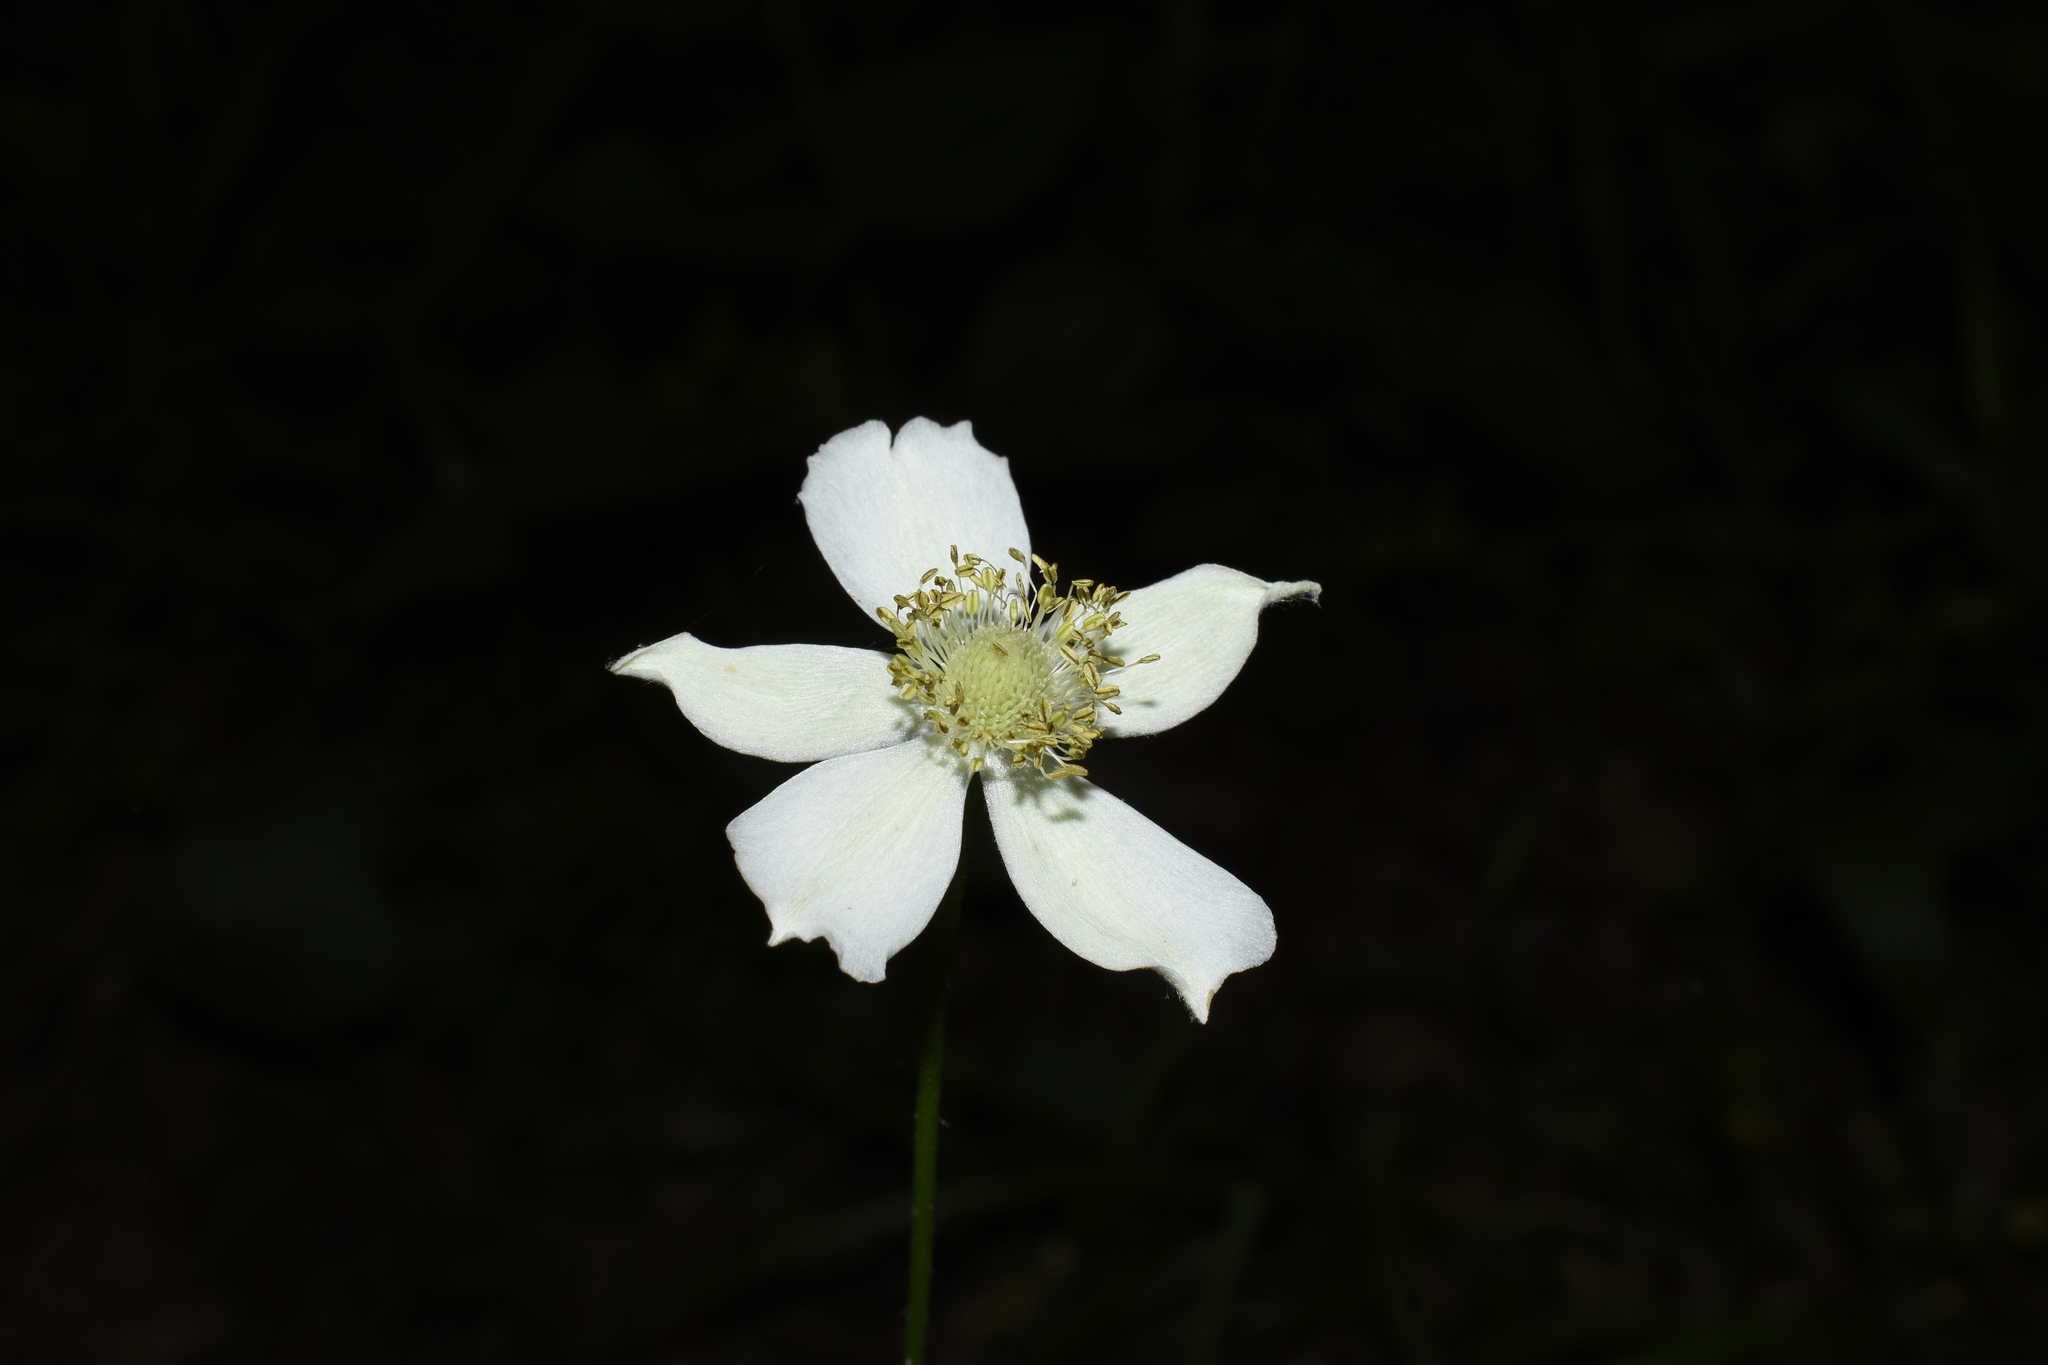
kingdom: Plantae
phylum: Tracheophyta
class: Magnoliopsida
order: Ranunculales
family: Ranunculaceae
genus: Anemone
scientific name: Anemone virginiana
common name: Tall anemone
